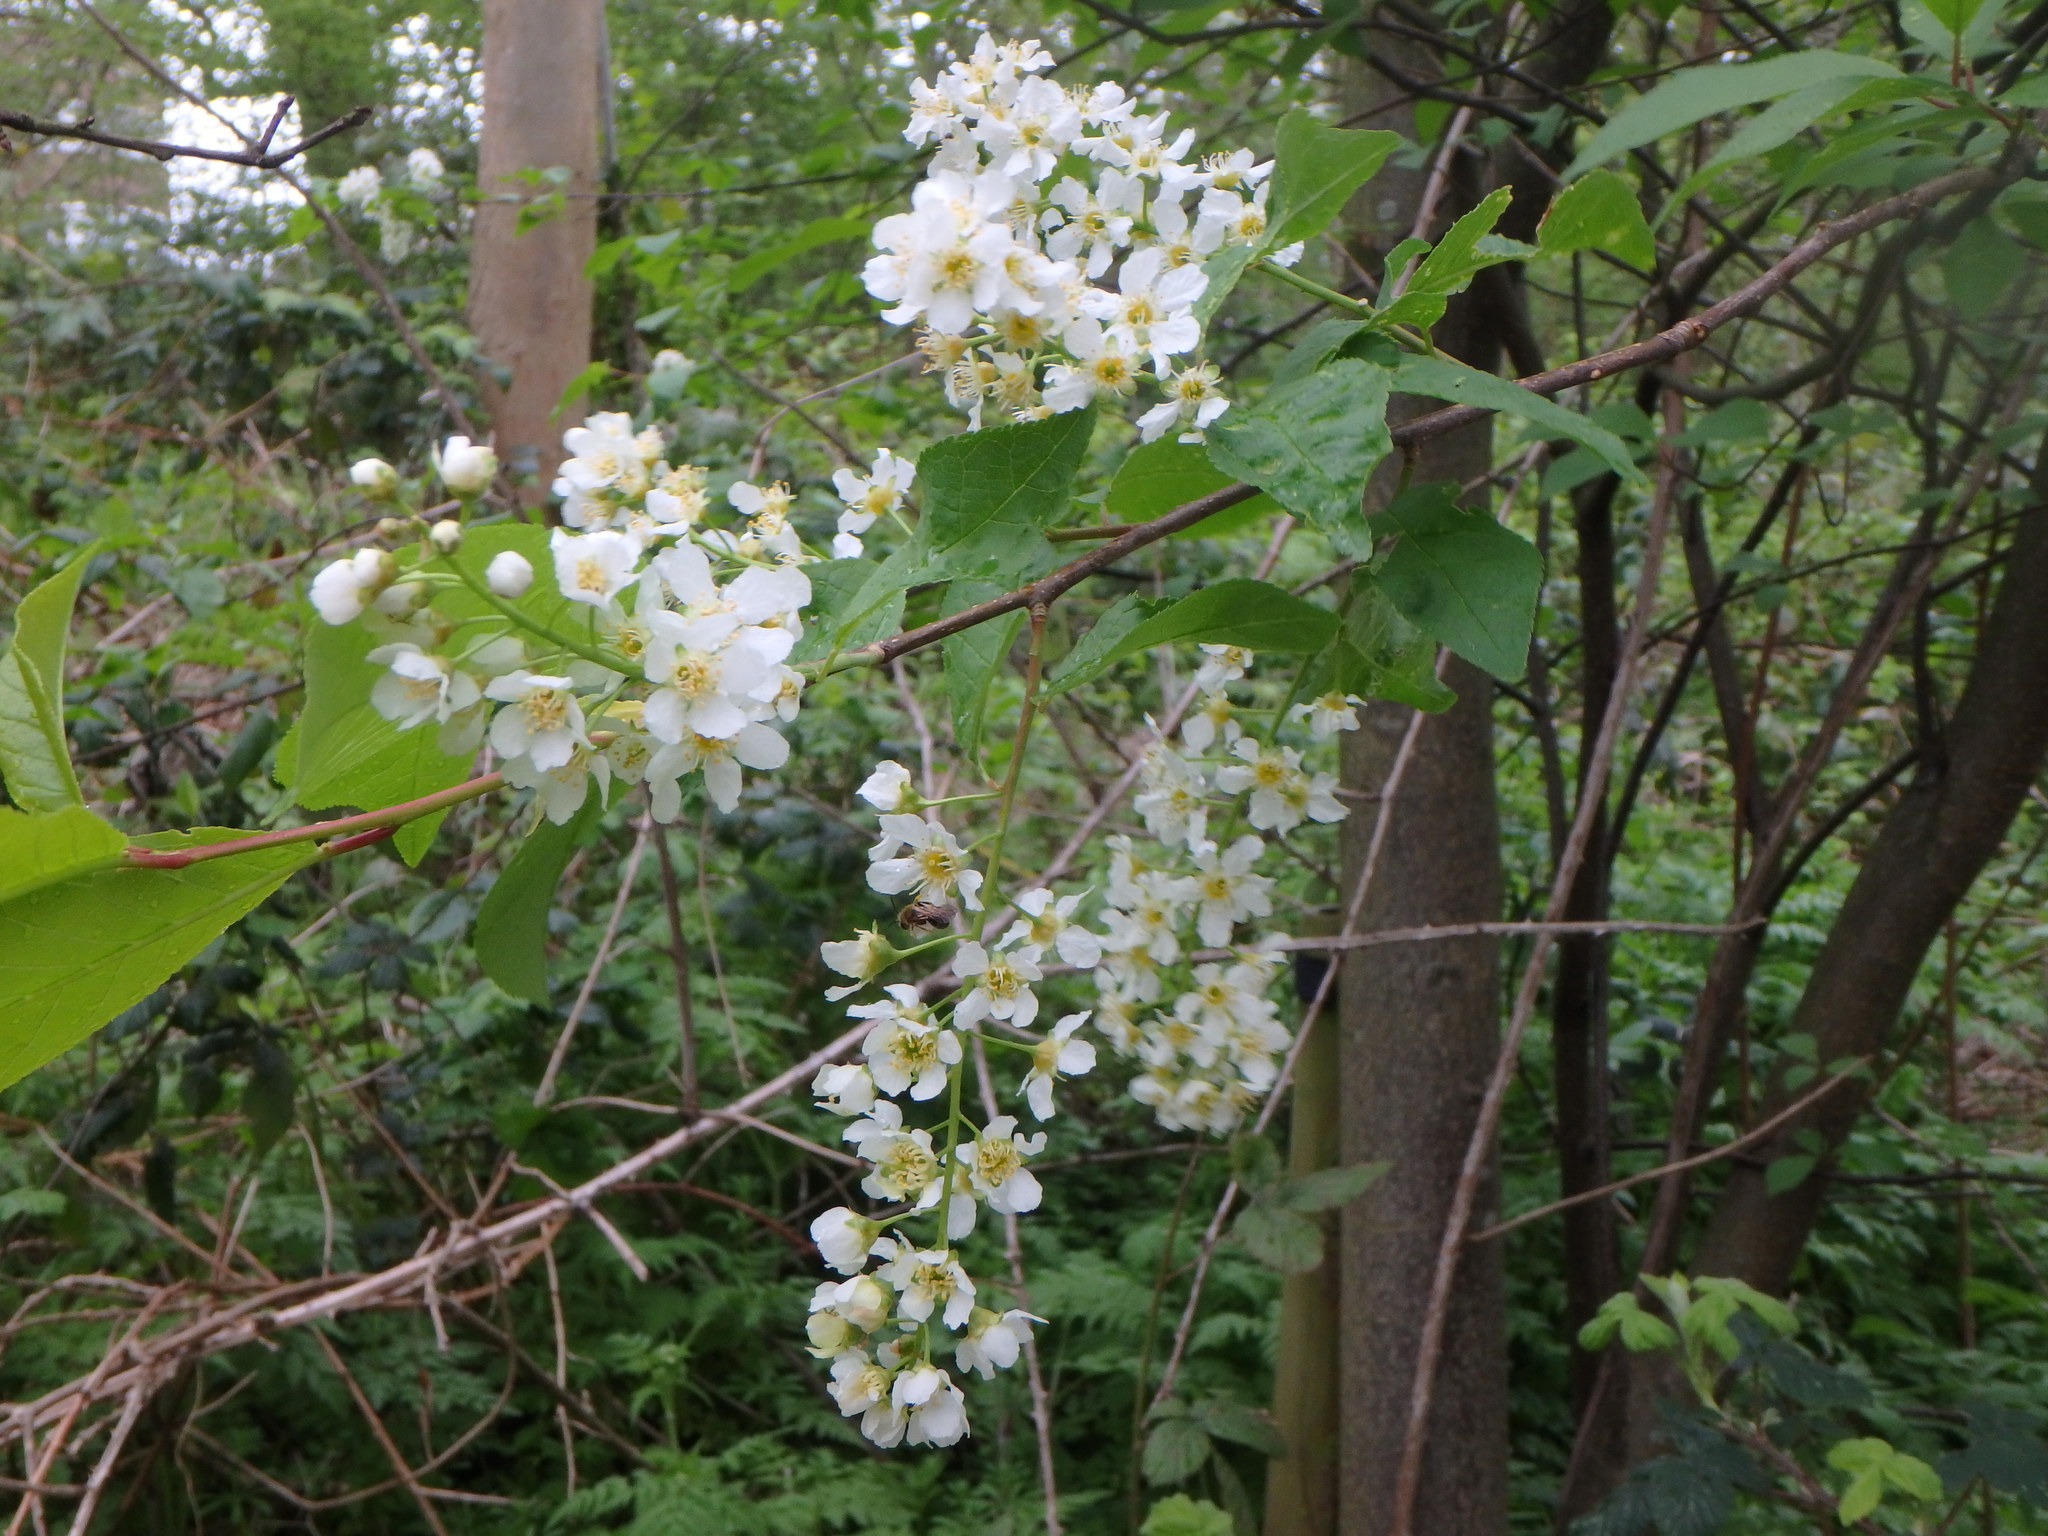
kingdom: Plantae
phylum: Tracheophyta
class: Magnoliopsida
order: Rosales
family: Rosaceae
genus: Prunus
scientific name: Prunus padus
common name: Bird cherry
